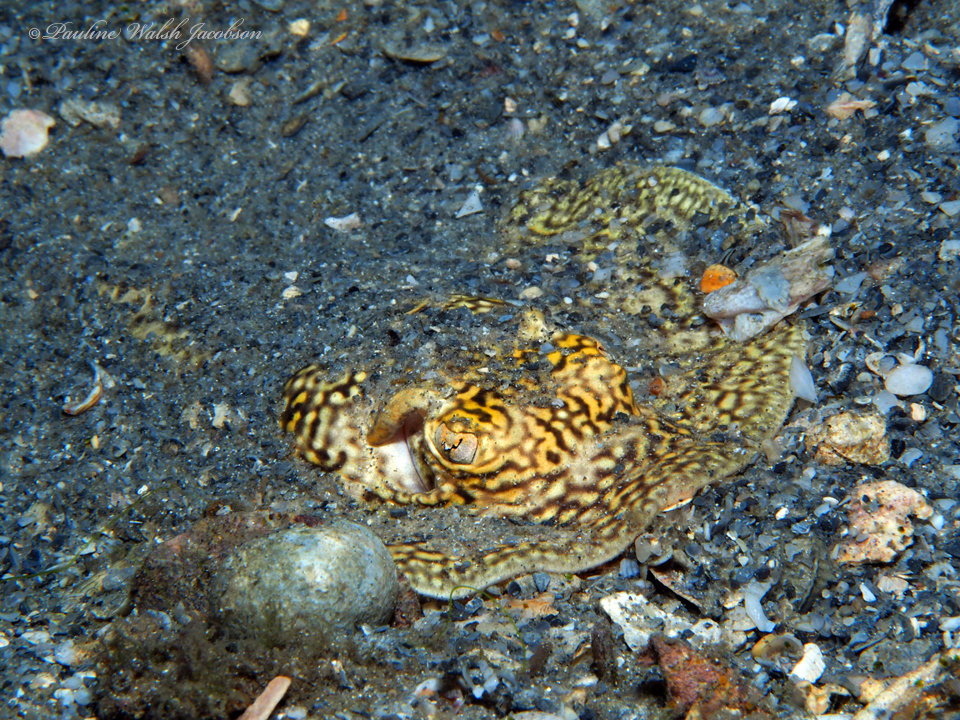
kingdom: Animalia
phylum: Chordata
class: Elasmobranchii
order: Myliobatiformes
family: Urotrygonidae
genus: Urobatis
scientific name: Urobatis jamaicensis
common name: Yellow stingray
